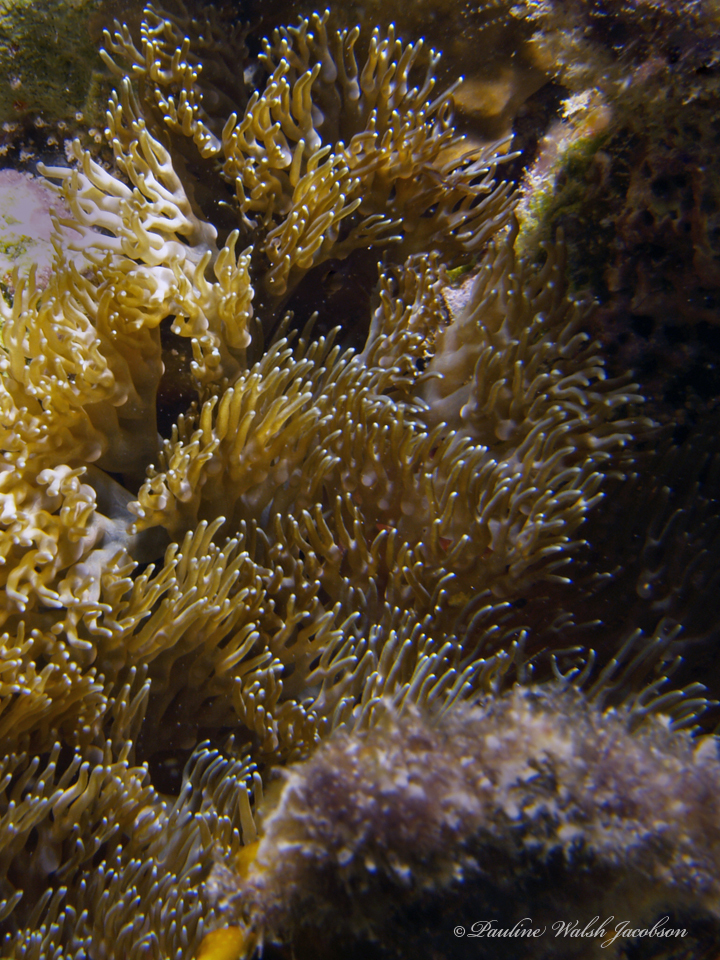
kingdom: Animalia
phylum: Cnidaria
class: Anthozoa
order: Actiniaria
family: Aliciidae
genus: Lebrunia
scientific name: Lebrunia neglecta
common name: Branching anemone
